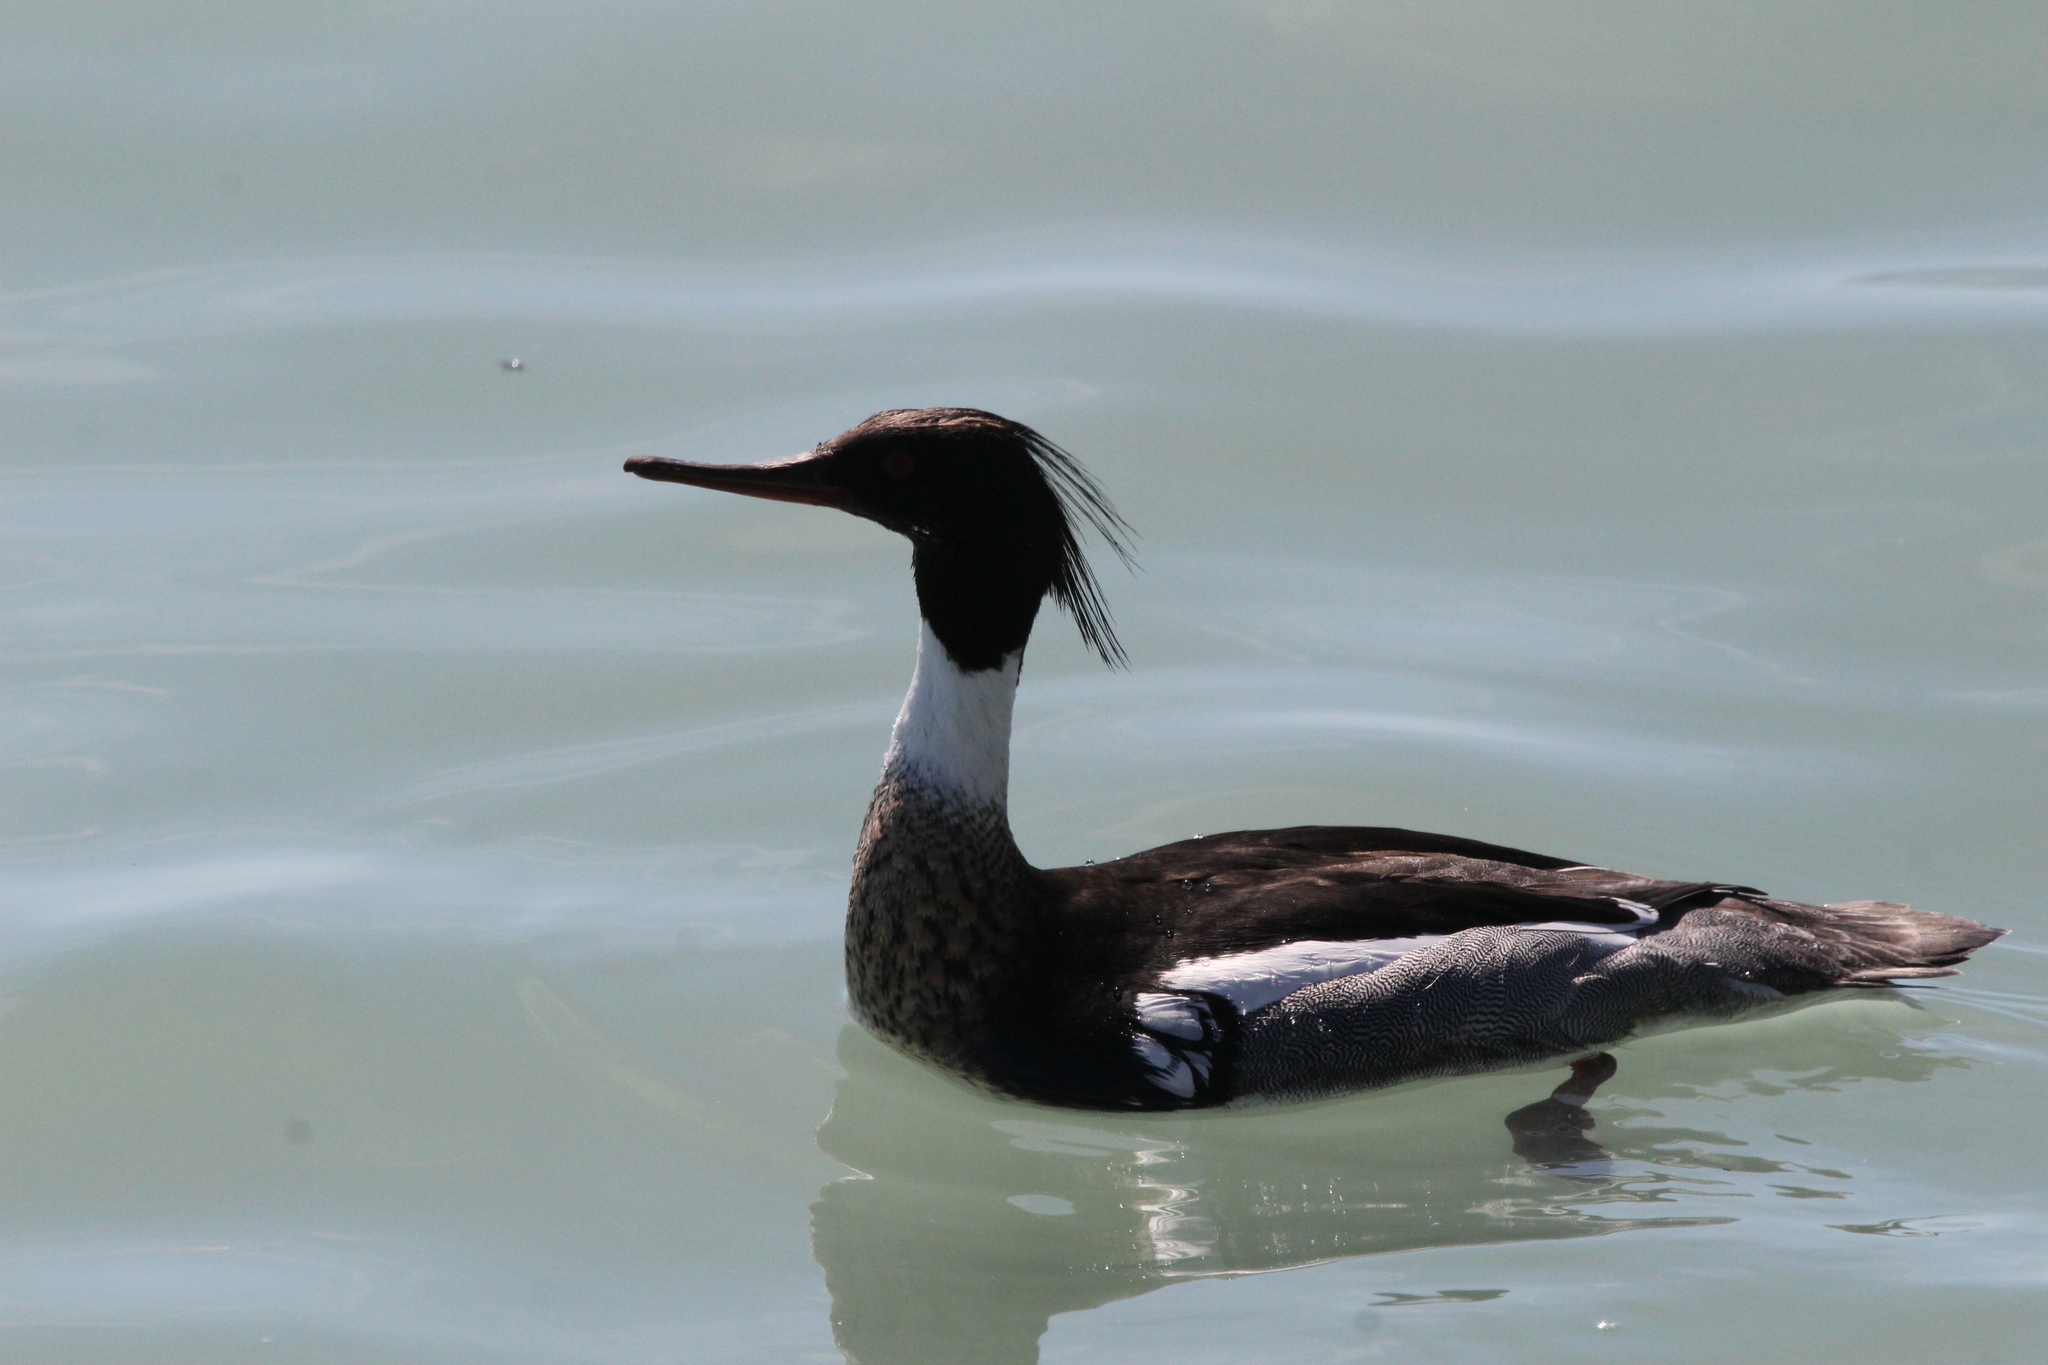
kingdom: Animalia
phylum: Chordata
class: Aves
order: Anseriformes
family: Anatidae
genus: Mergus
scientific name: Mergus serrator
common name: Red-breasted merganser
